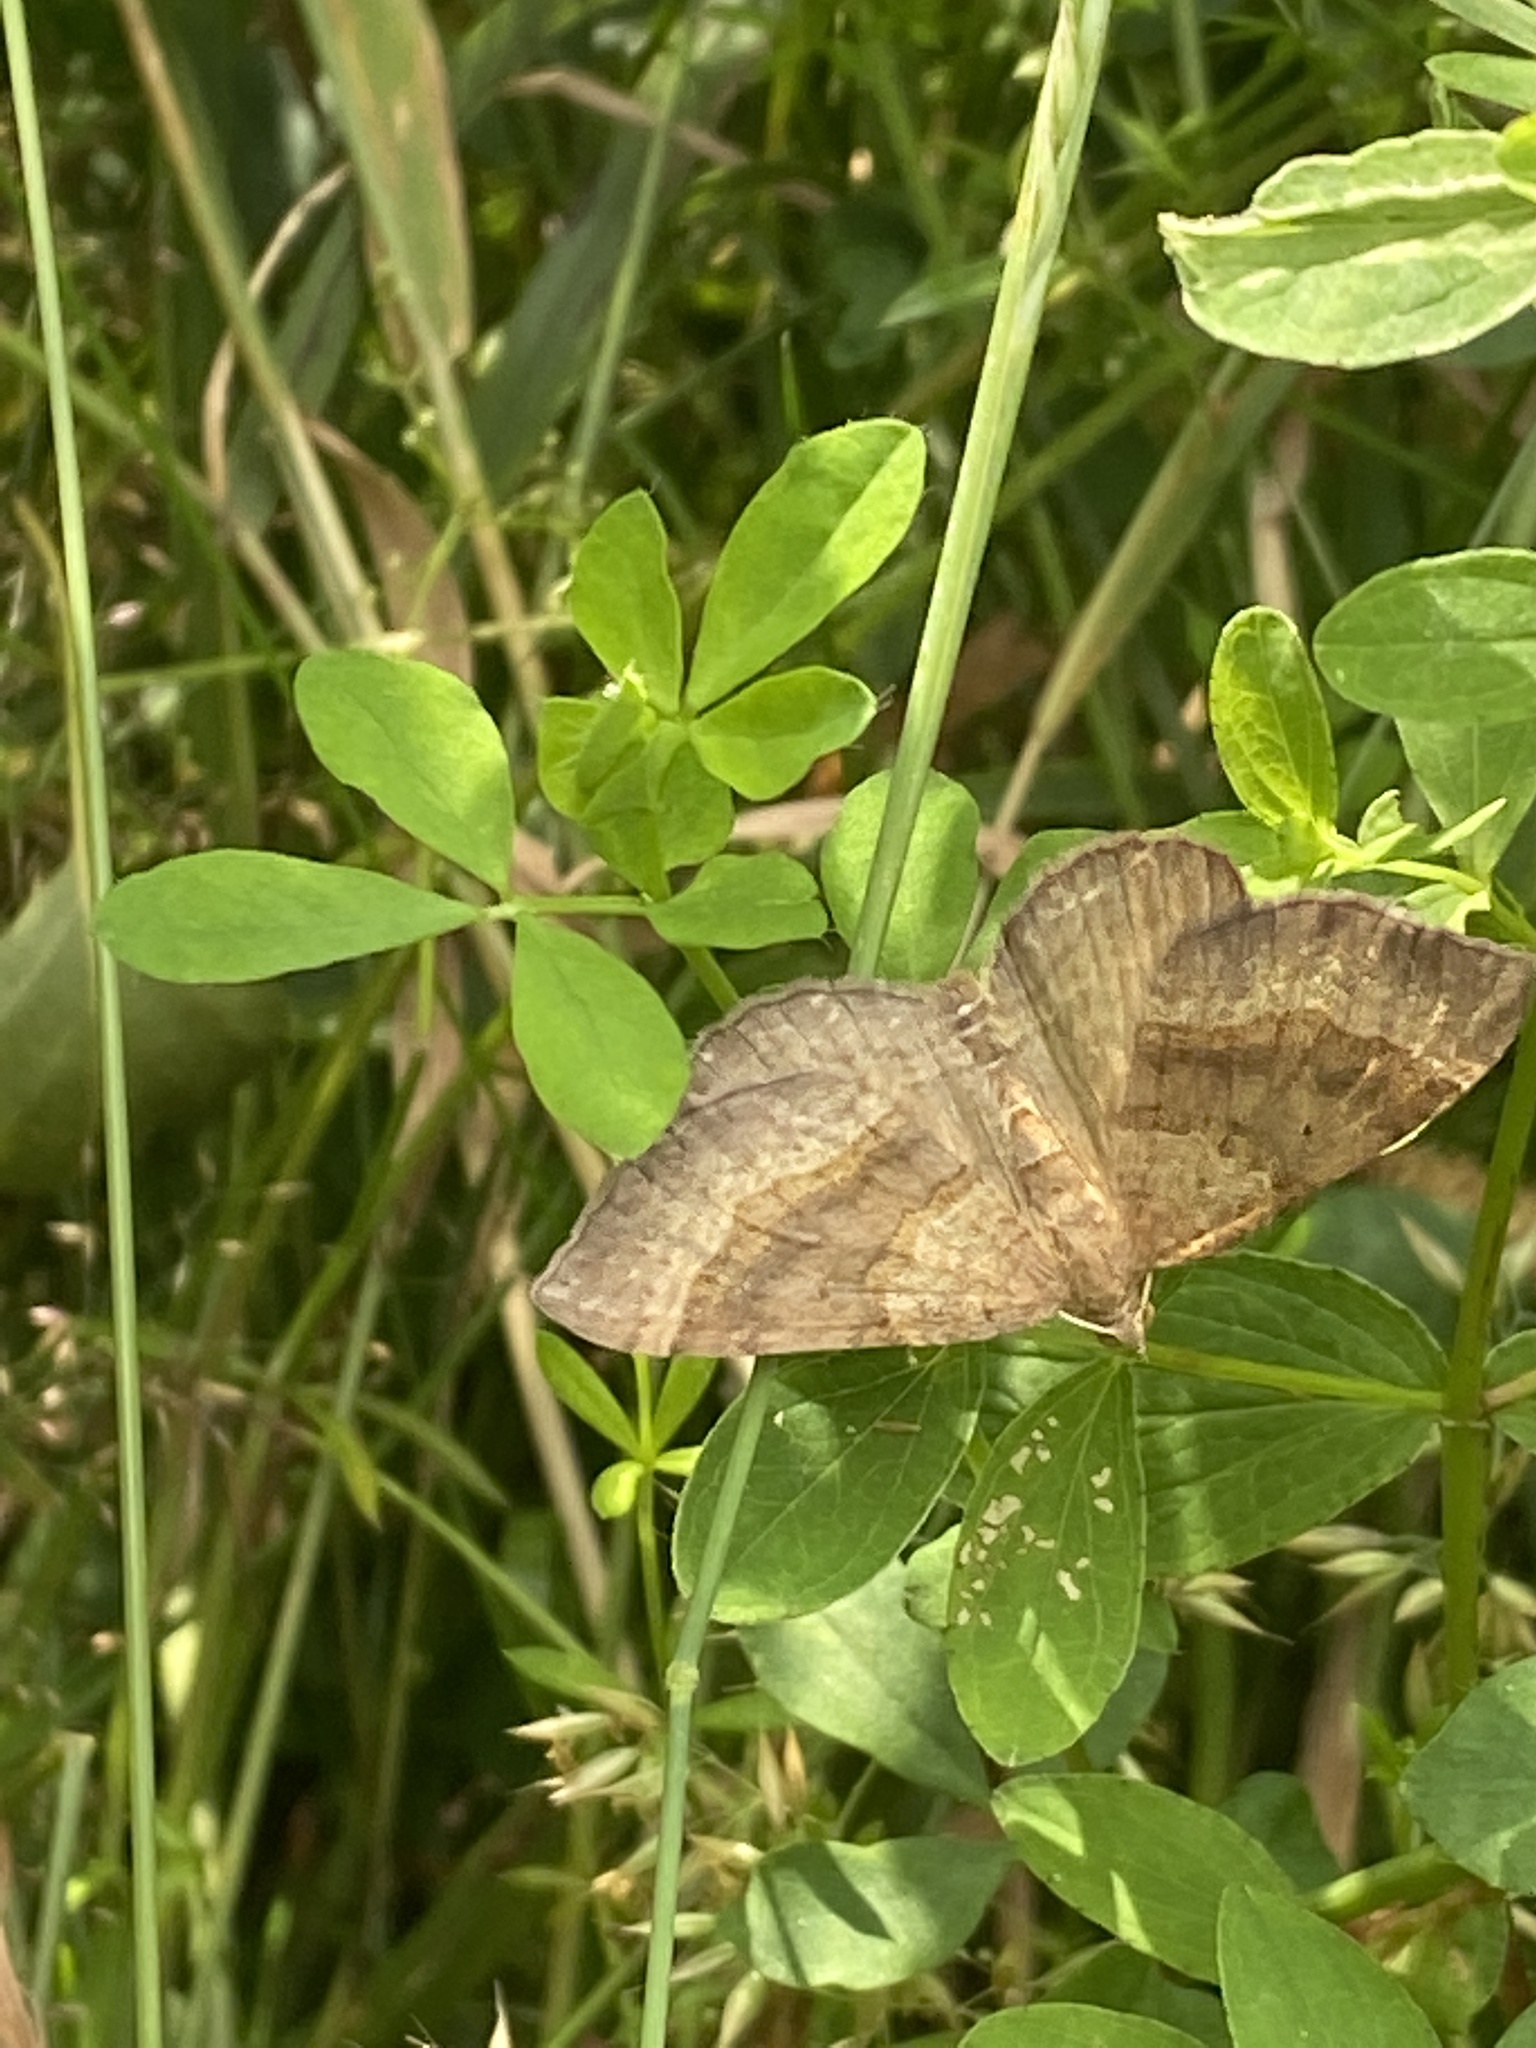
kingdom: Animalia
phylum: Arthropoda
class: Insecta
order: Lepidoptera
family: Geometridae
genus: Scotopteryx
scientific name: Scotopteryx chenopodiata
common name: Shaded broad-bar
